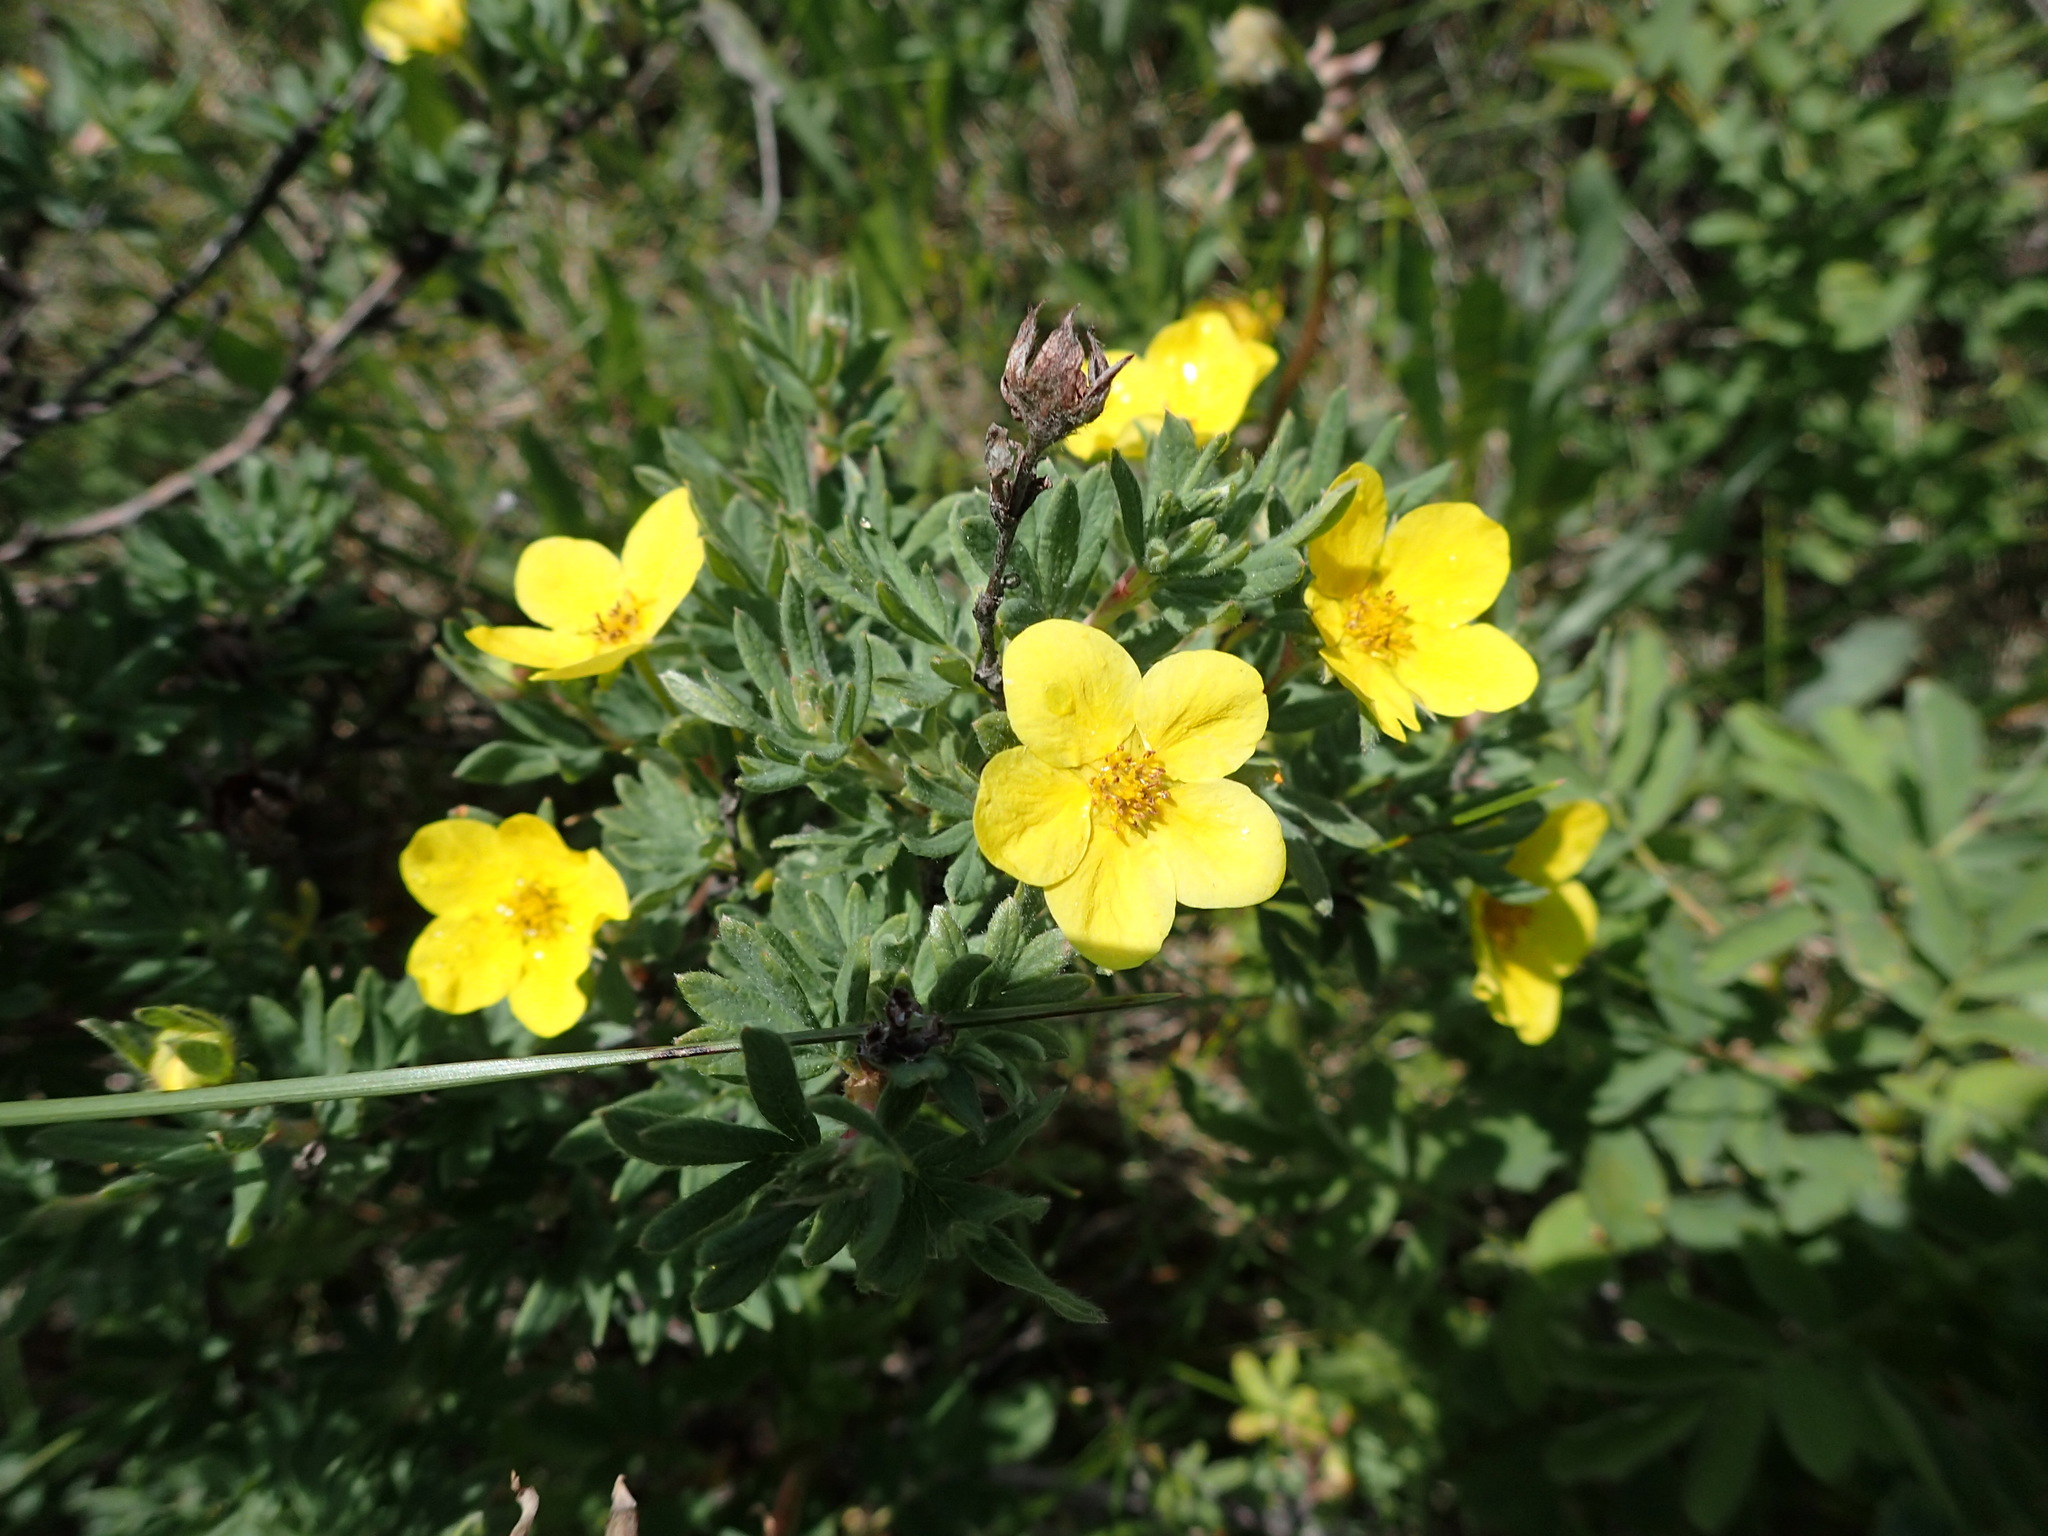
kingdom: Plantae
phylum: Tracheophyta
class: Magnoliopsida
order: Rosales
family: Rosaceae
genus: Dasiphora
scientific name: Dasiphora fruticosa
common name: Shrubby cinquefoil
